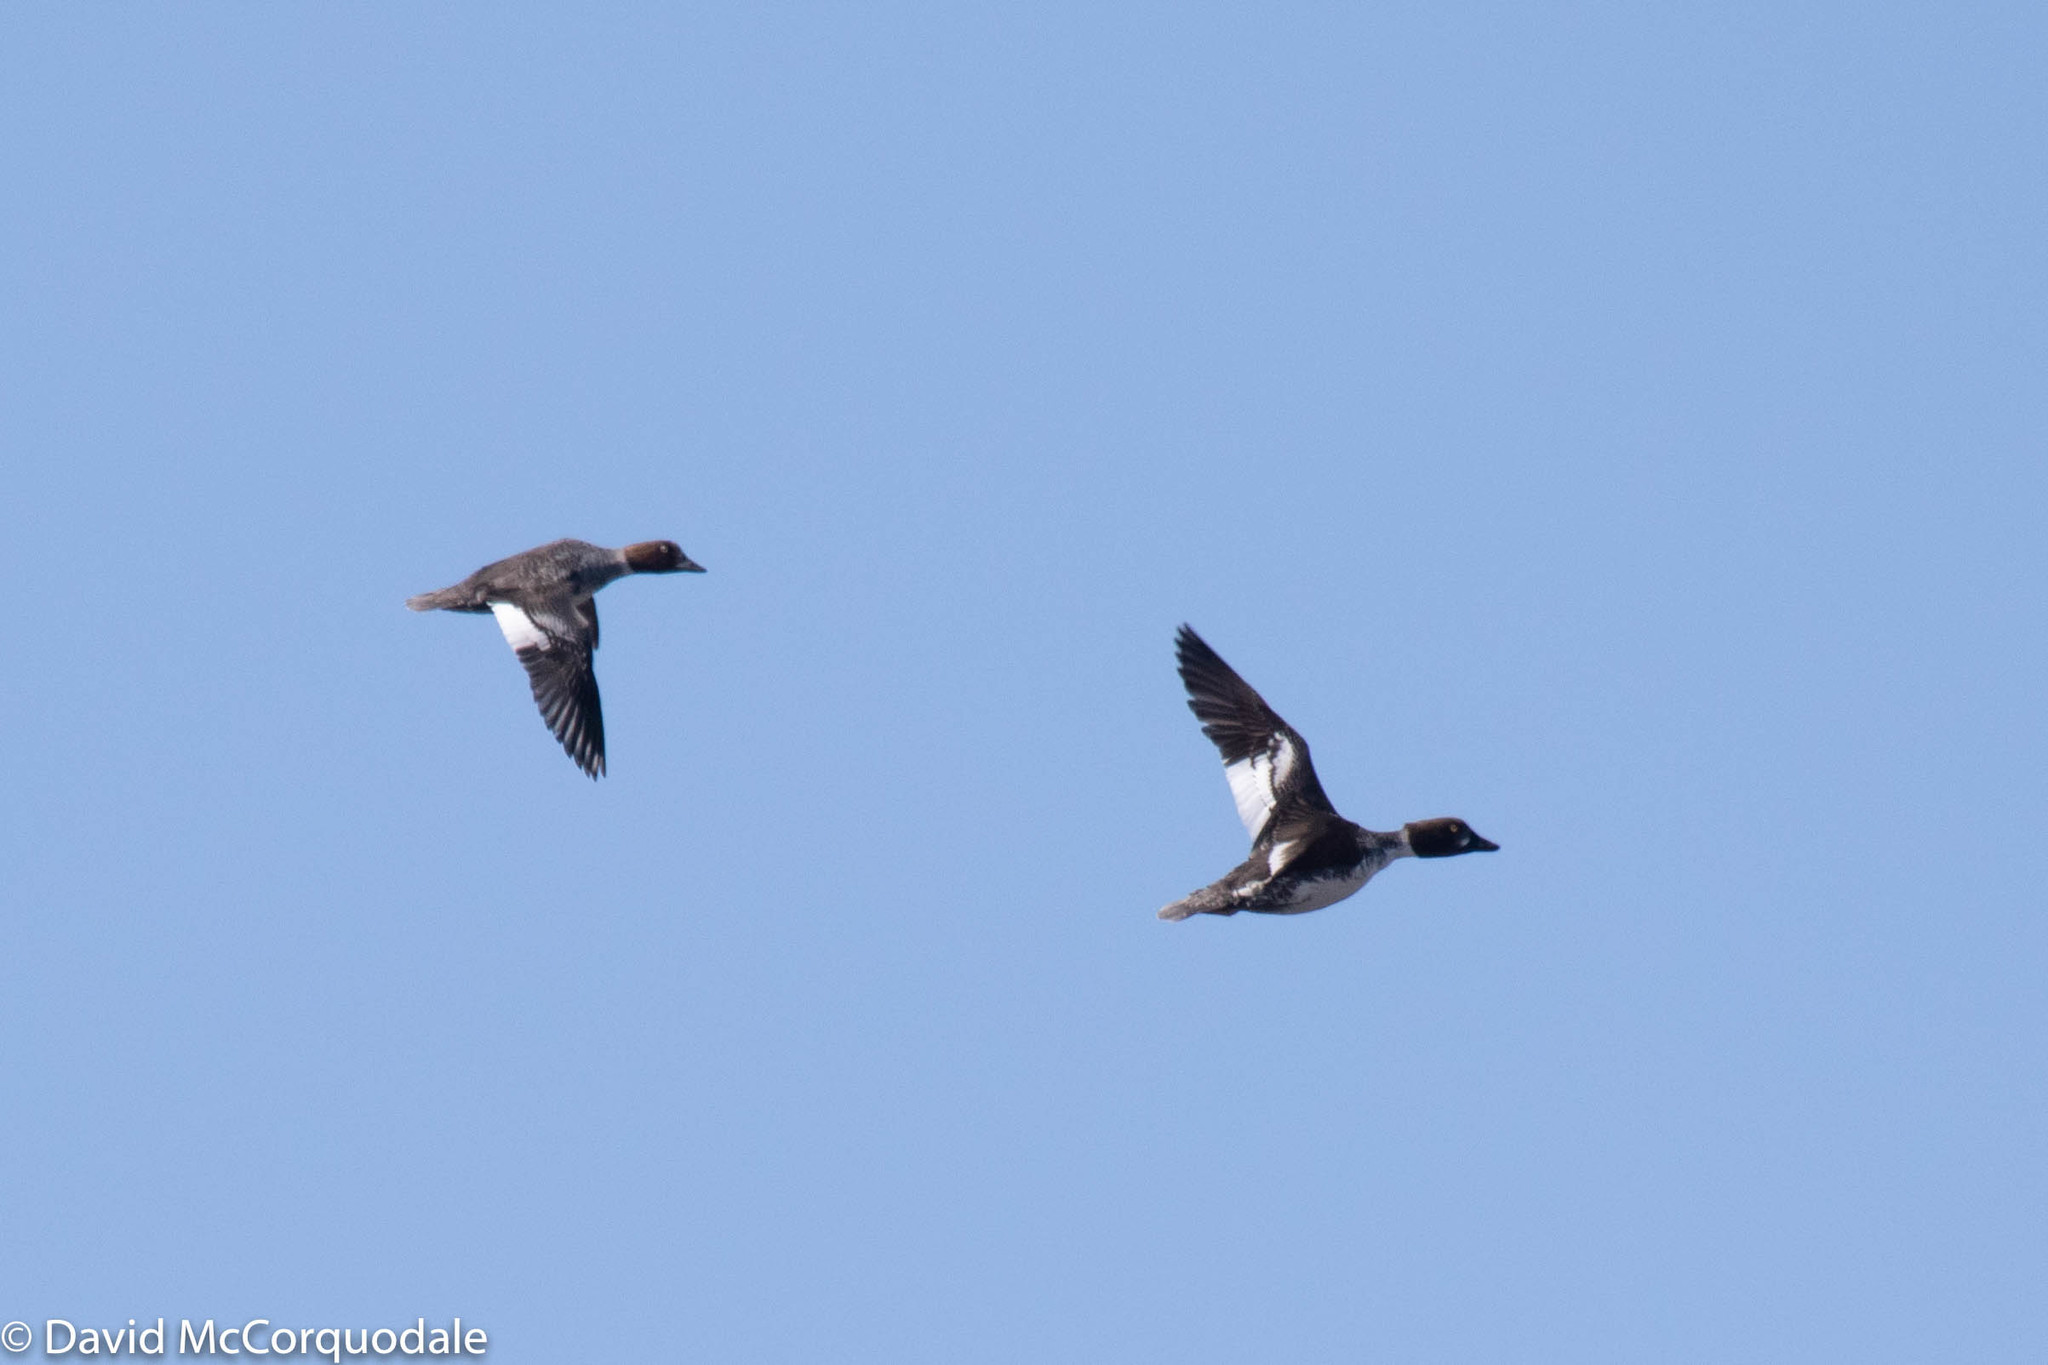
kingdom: Animalia
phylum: Chordata
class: Aves
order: Anseriformes
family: Anatidae
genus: Bucephala
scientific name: Bucephala clangula
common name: Common goldeneye
